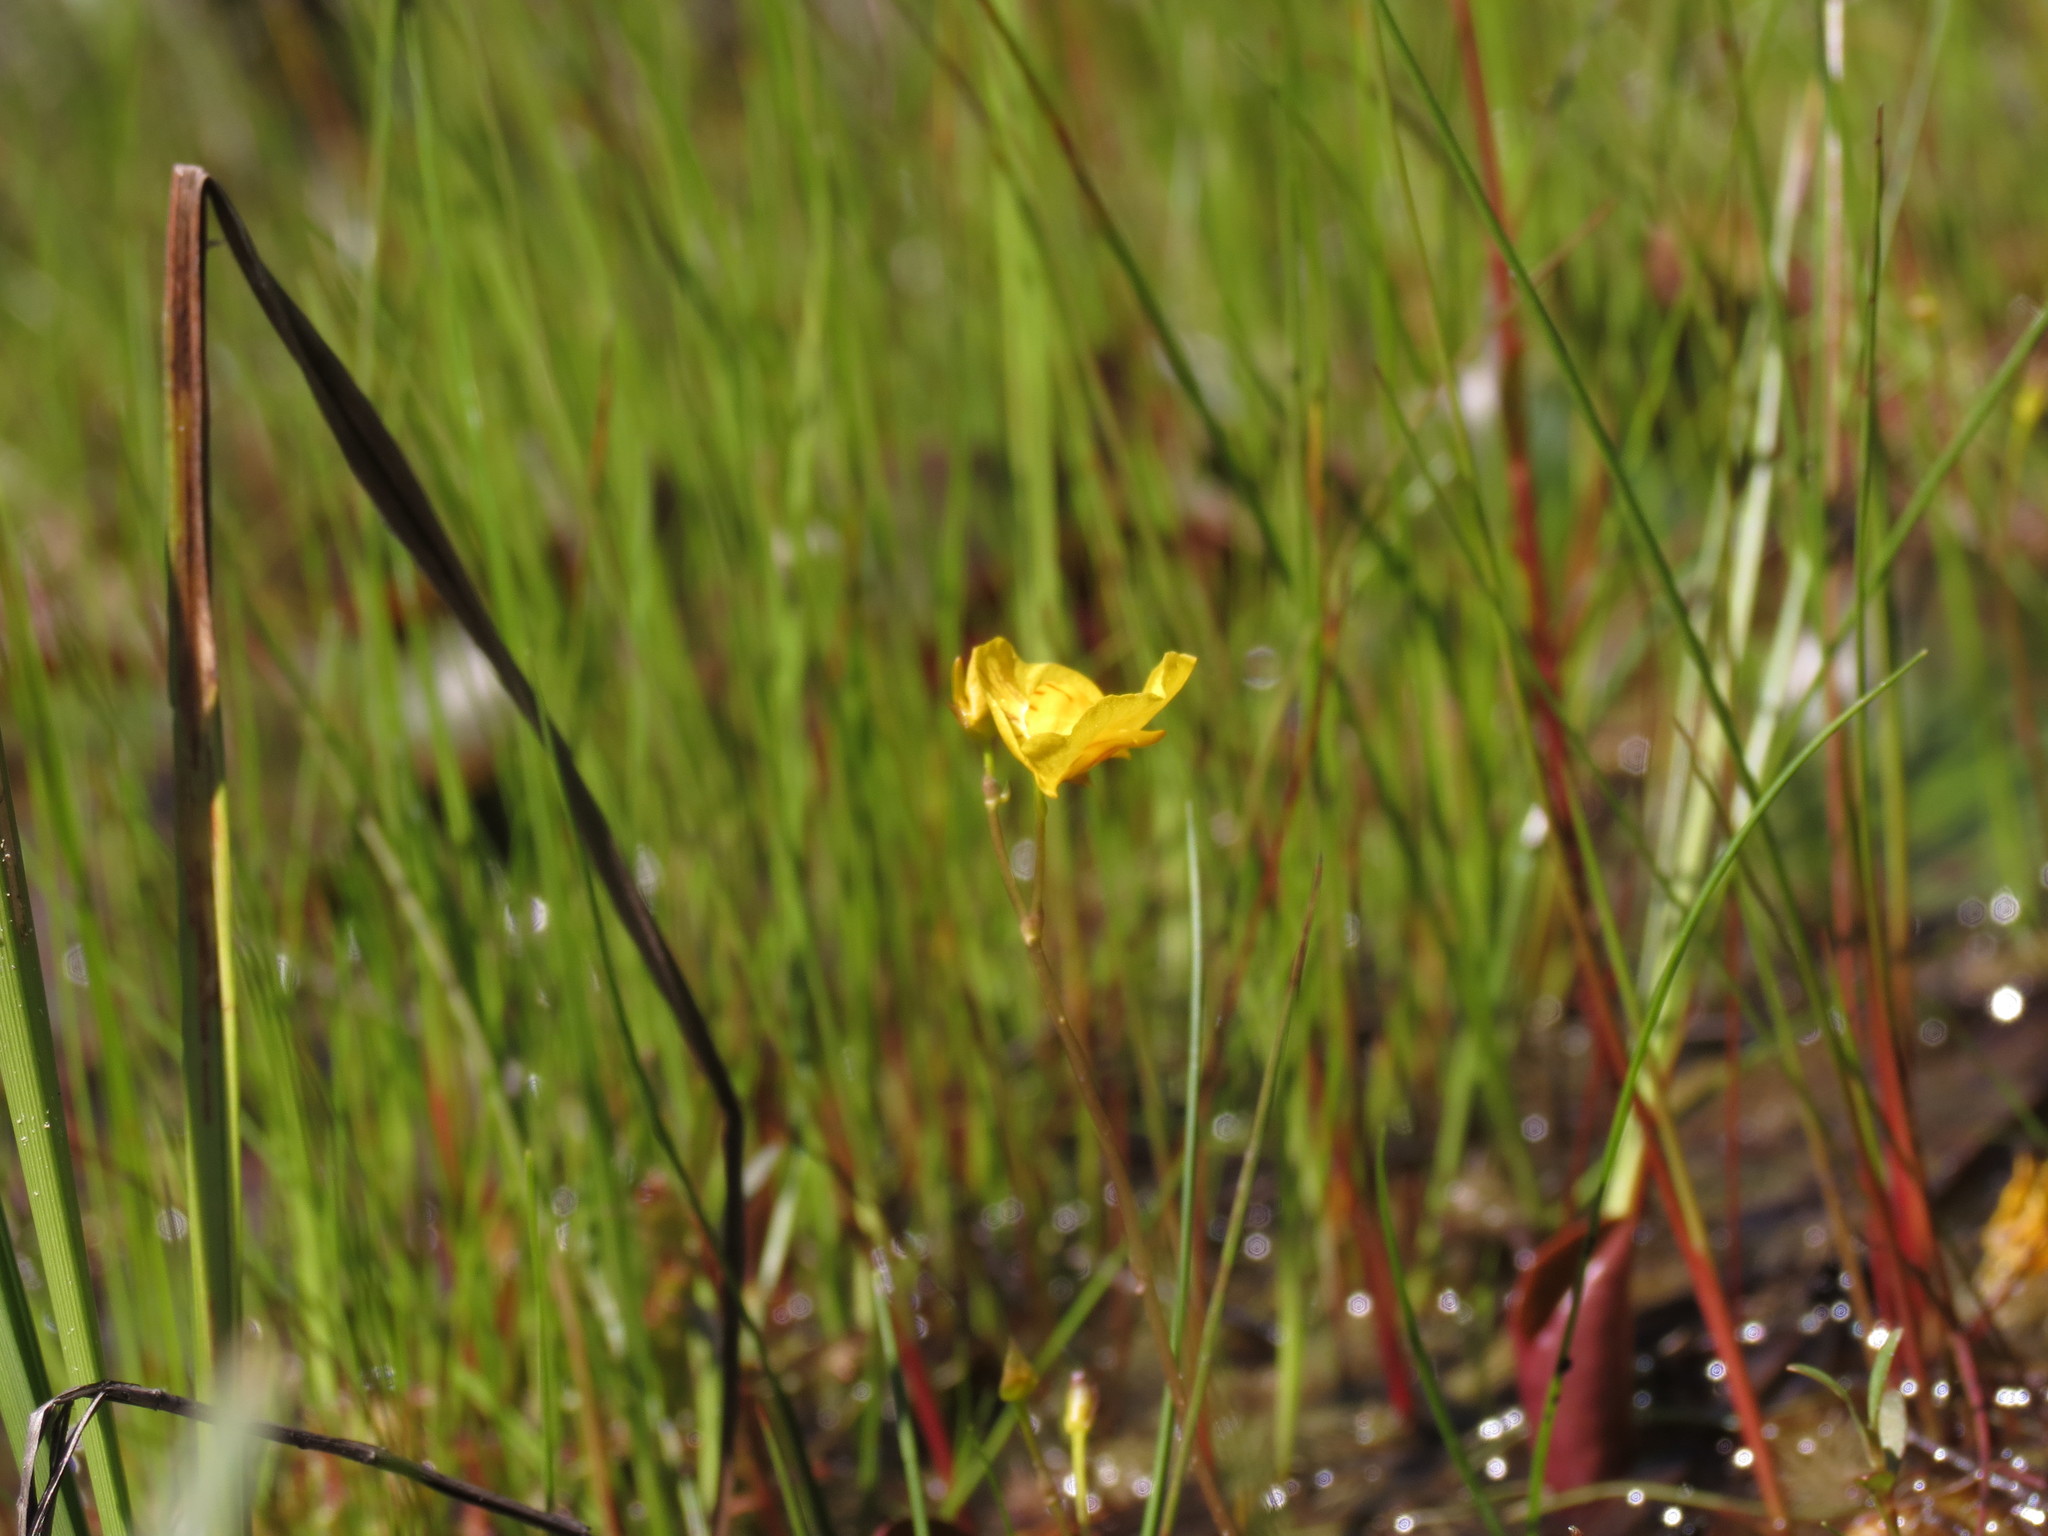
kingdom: Plantae
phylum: Tracheophyta
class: Magnoliopsida
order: Lamiales
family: Lentibulariaceae
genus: Utricularia
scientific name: Utricularia intermedia
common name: Intermediate bladderwort
